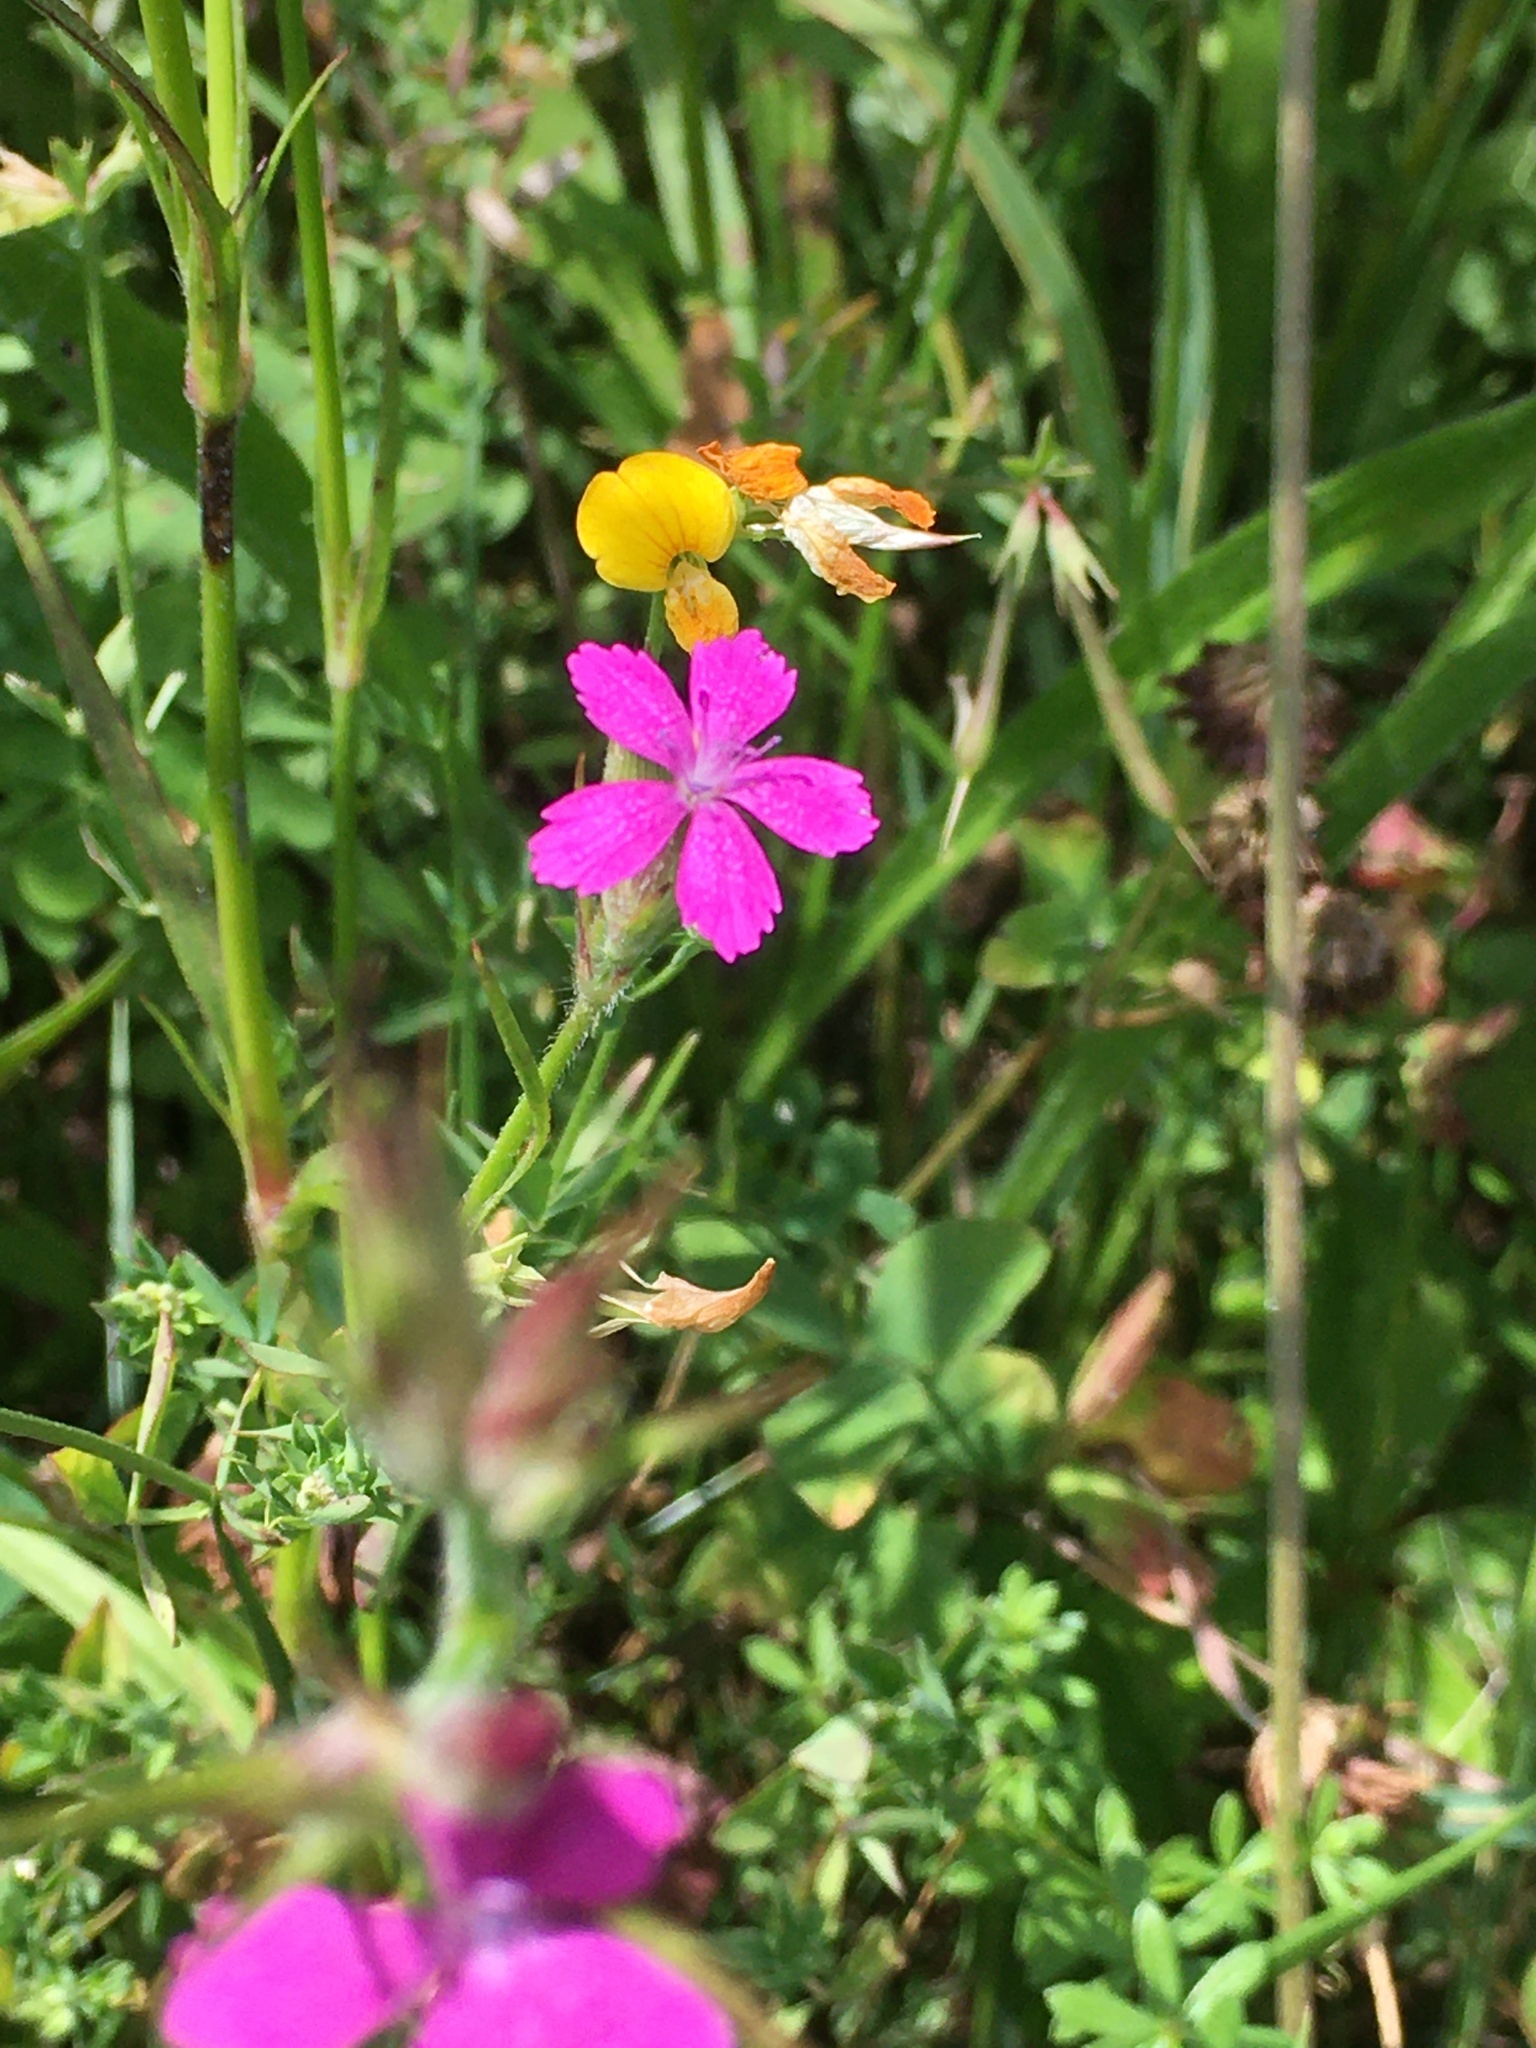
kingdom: Plantae
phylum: Tracheophyta
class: Magnoliopsida
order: Caryophyllales
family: Caryophyllaceae
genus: Dianthus
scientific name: Dianthus armeria
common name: Deptford pink
